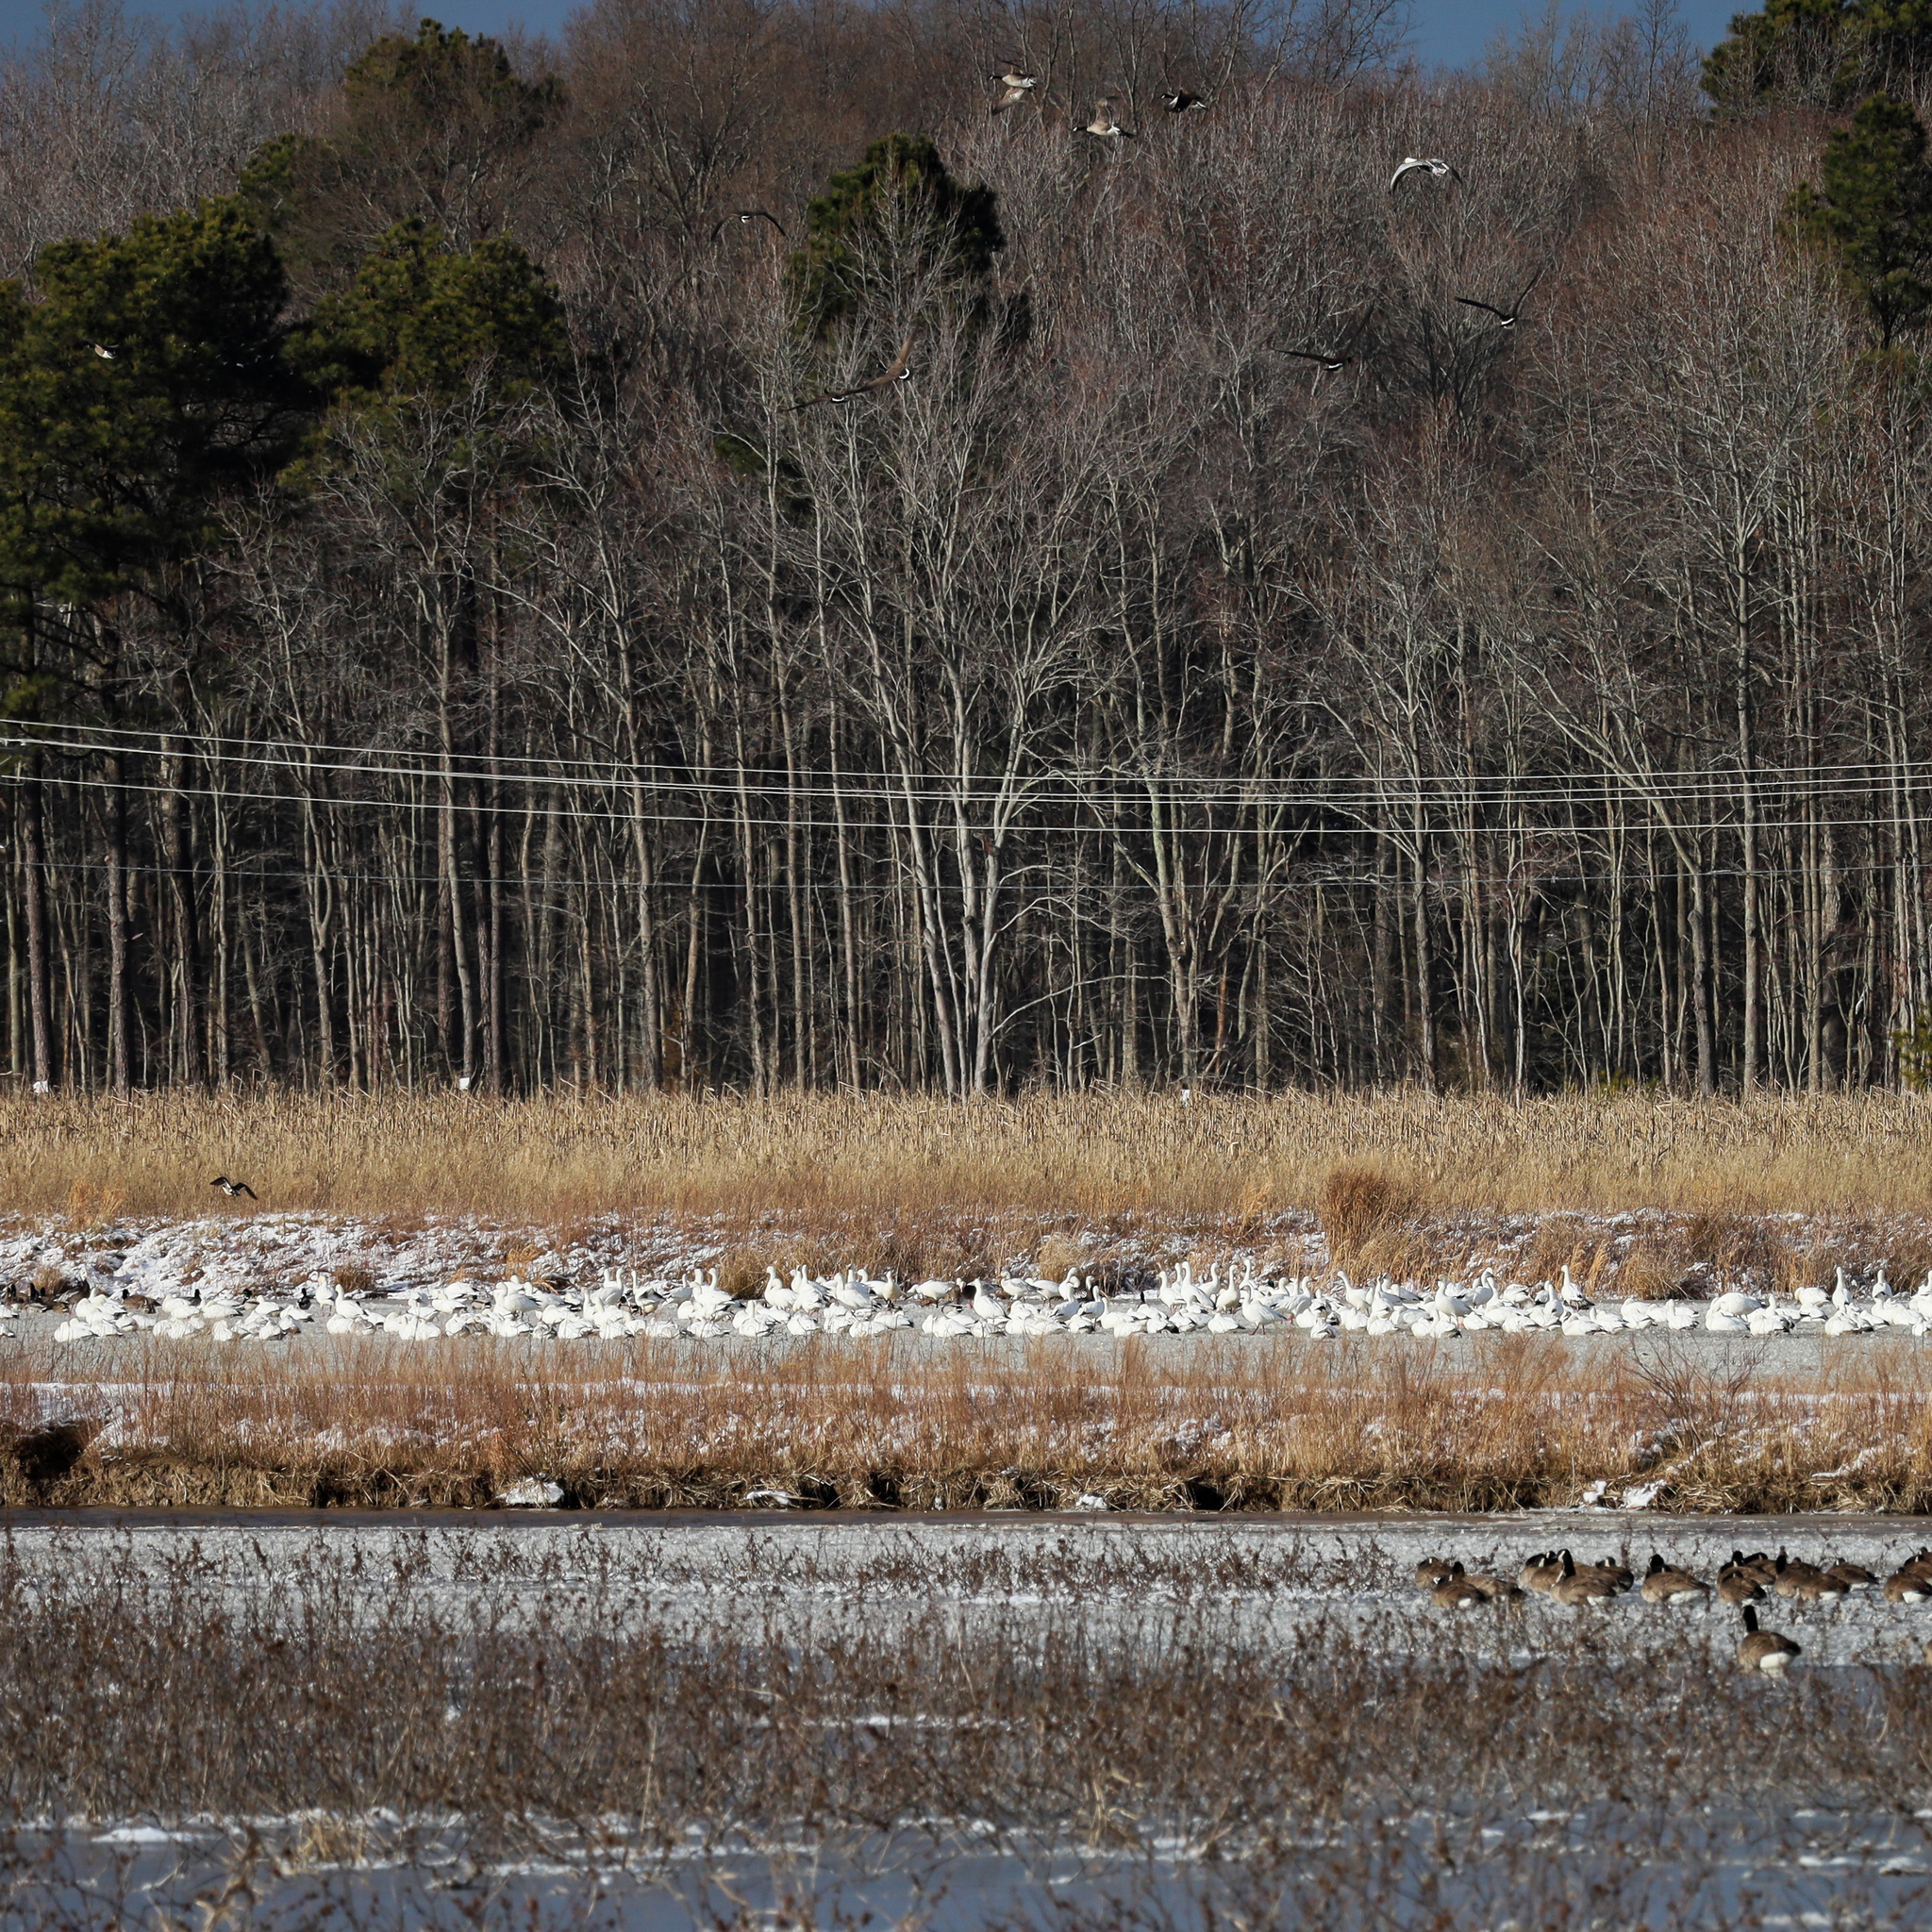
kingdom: Animalia
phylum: Chordata
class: Aves
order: Anseriformes
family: Anatidae
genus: Anser
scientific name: Anser caerulescens
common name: Snow goose
